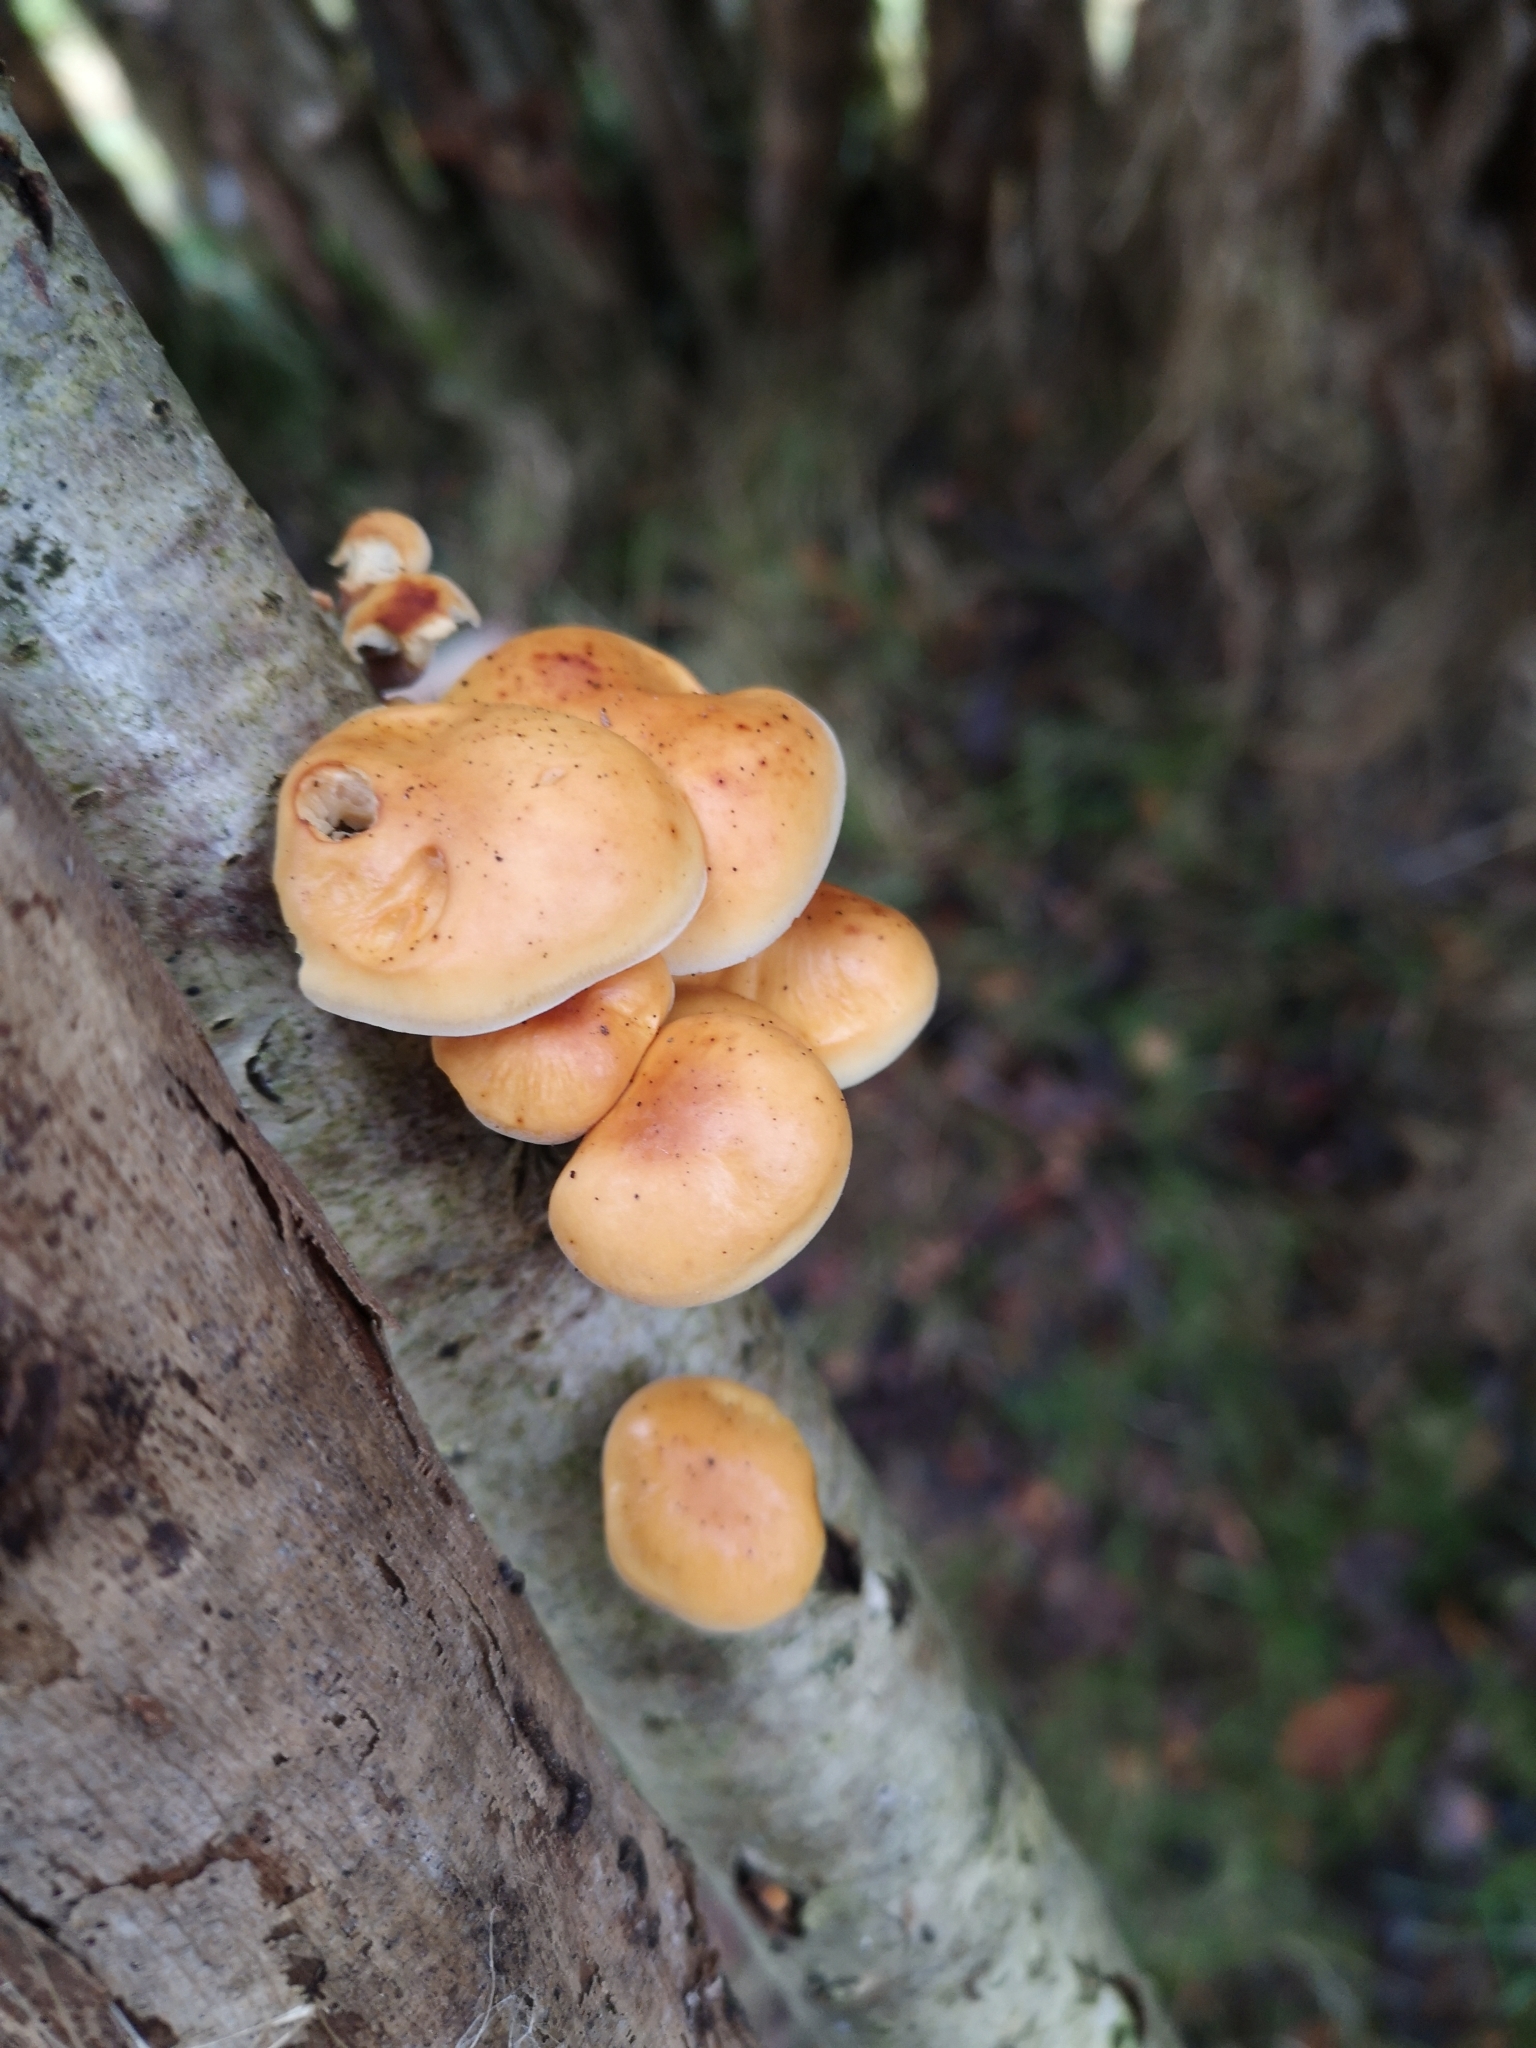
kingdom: Fungi
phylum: Basidiomycota
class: Agaricomycetes
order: Agaricales
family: Physalacriaceae
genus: Flammulina
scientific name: Flammulina
